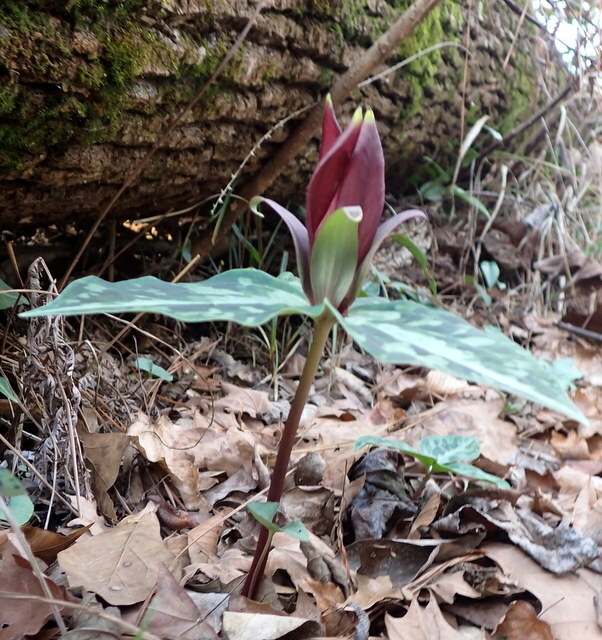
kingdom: Plantae
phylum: Tracheophyta
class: Liliopsida
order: Liliales
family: Melanthiaceae
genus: Trillium
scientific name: Trillium underwoodii
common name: Longbract wakerobin
